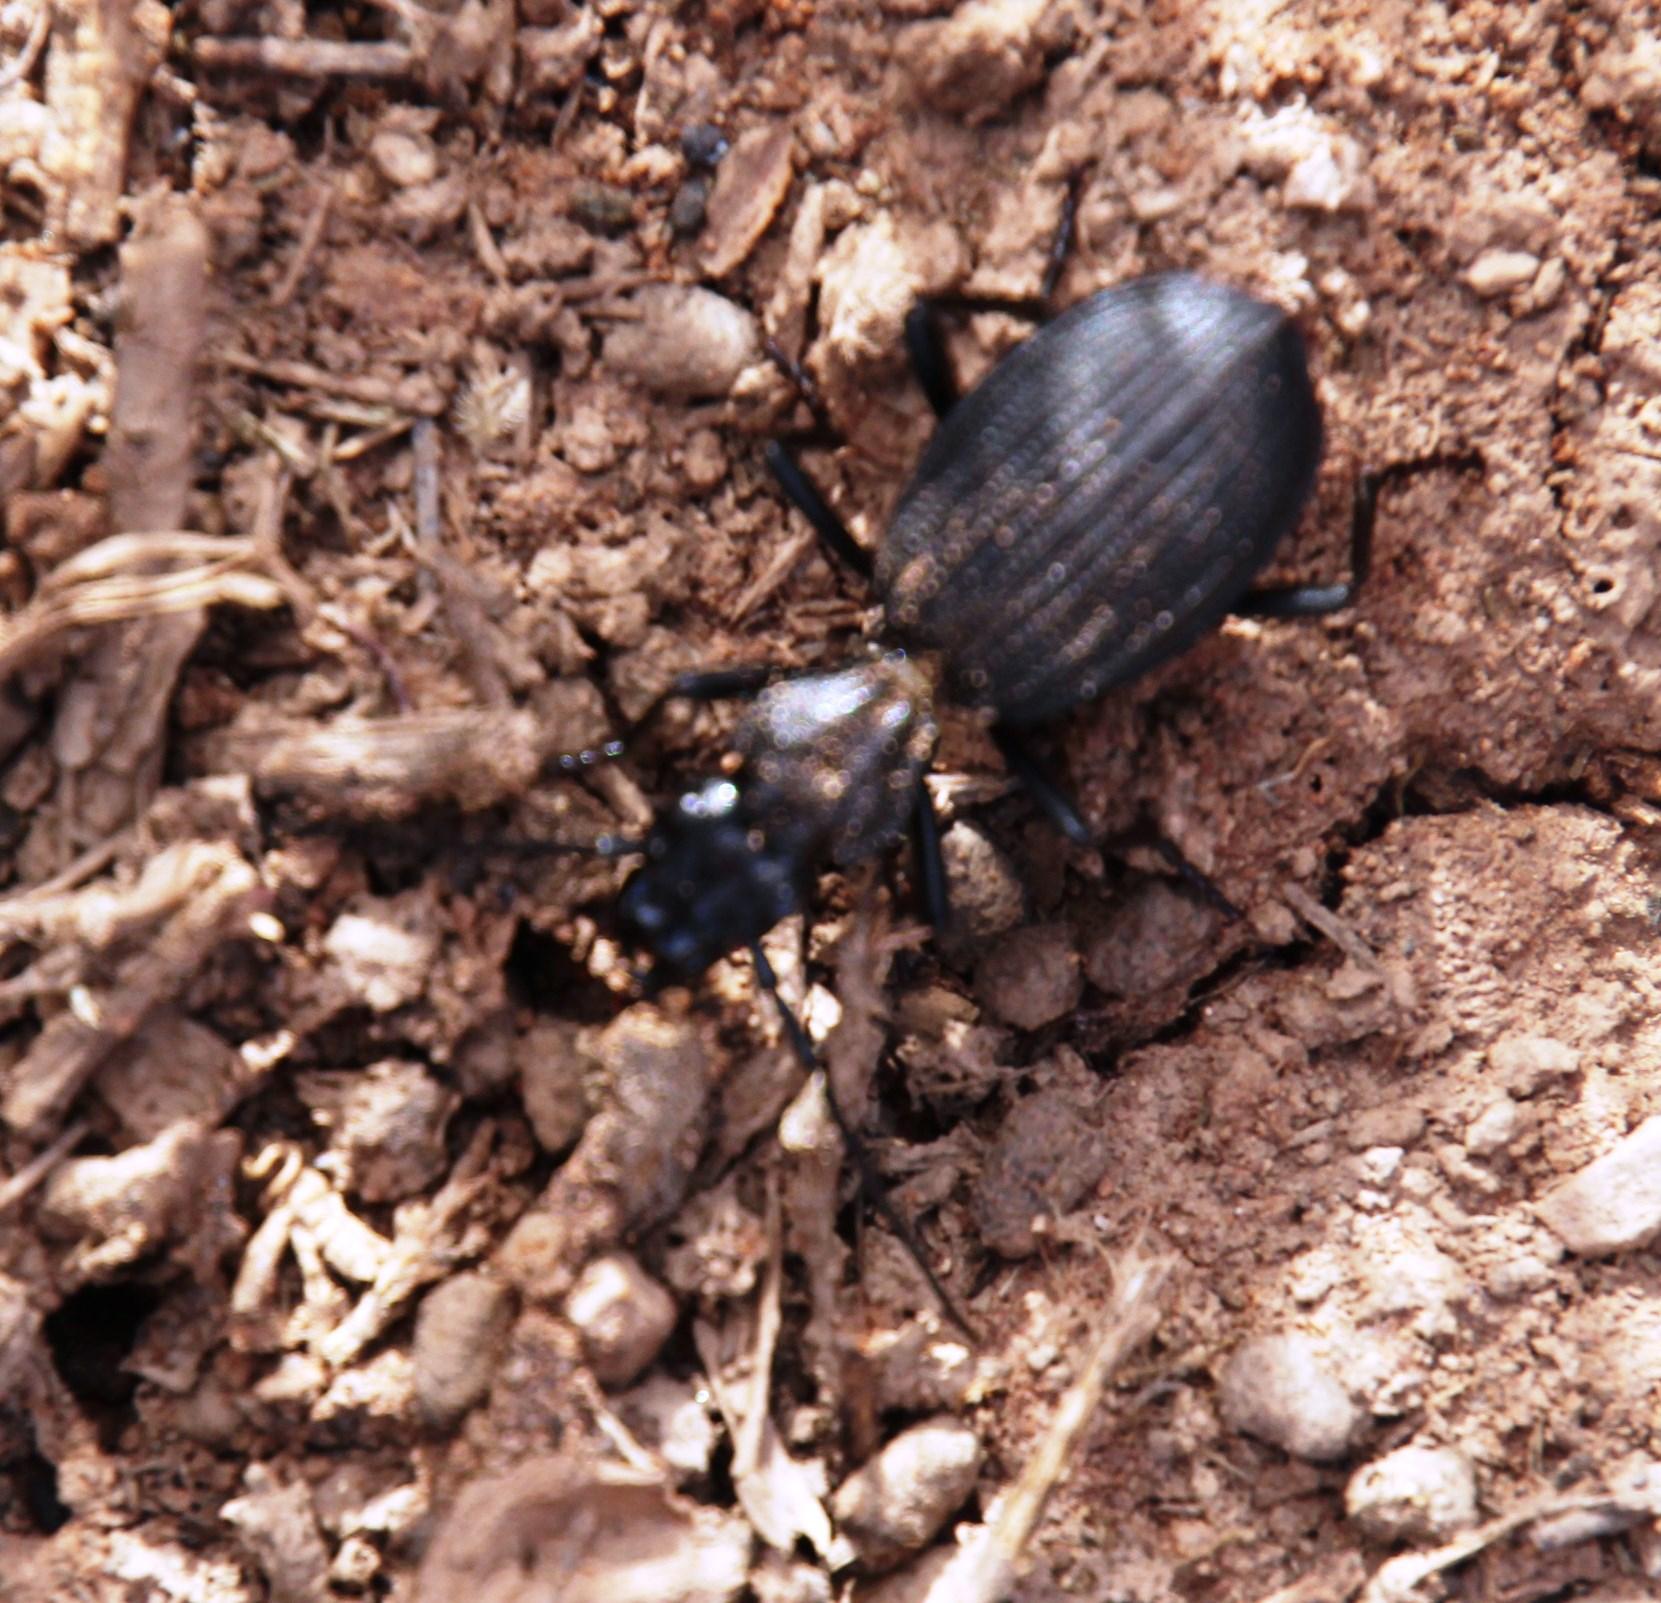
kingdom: Animalia
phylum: Arthropoda
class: Insecta
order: Coleoptera
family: Carabidae
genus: Gonogenia
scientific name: Gonogenia rugosopunctata
